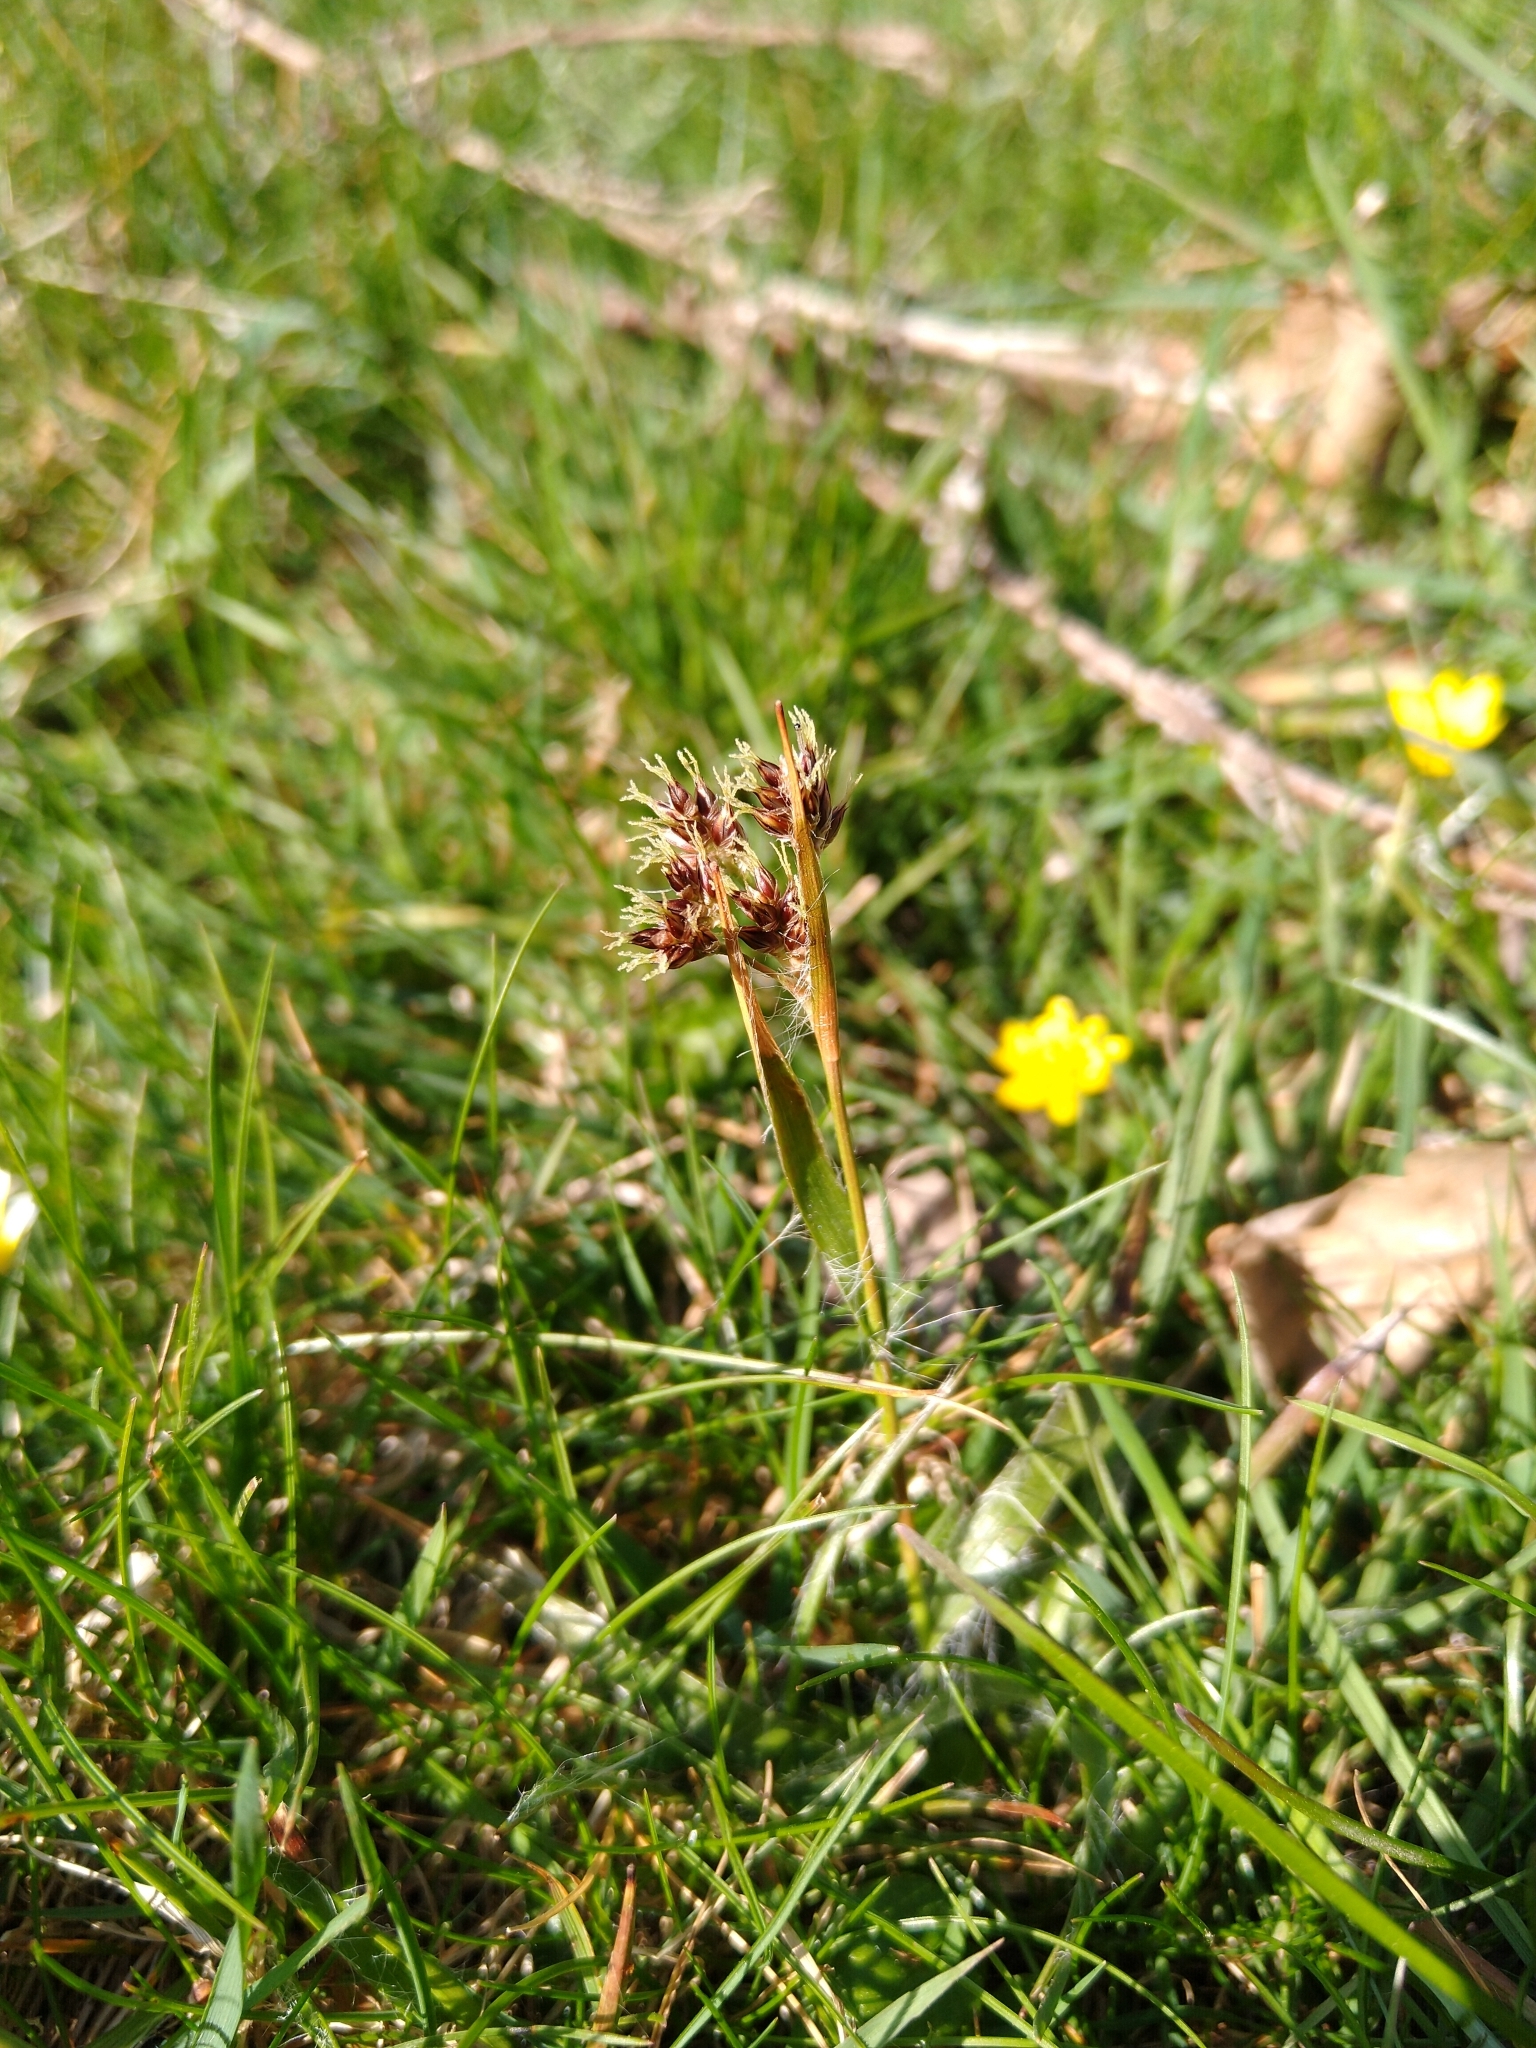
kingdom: Plantae
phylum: Tracheophyta
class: Liliopsida
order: Poales
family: Juncaceae
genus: Luzula
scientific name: Luzula campestris
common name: Field wood-rush
